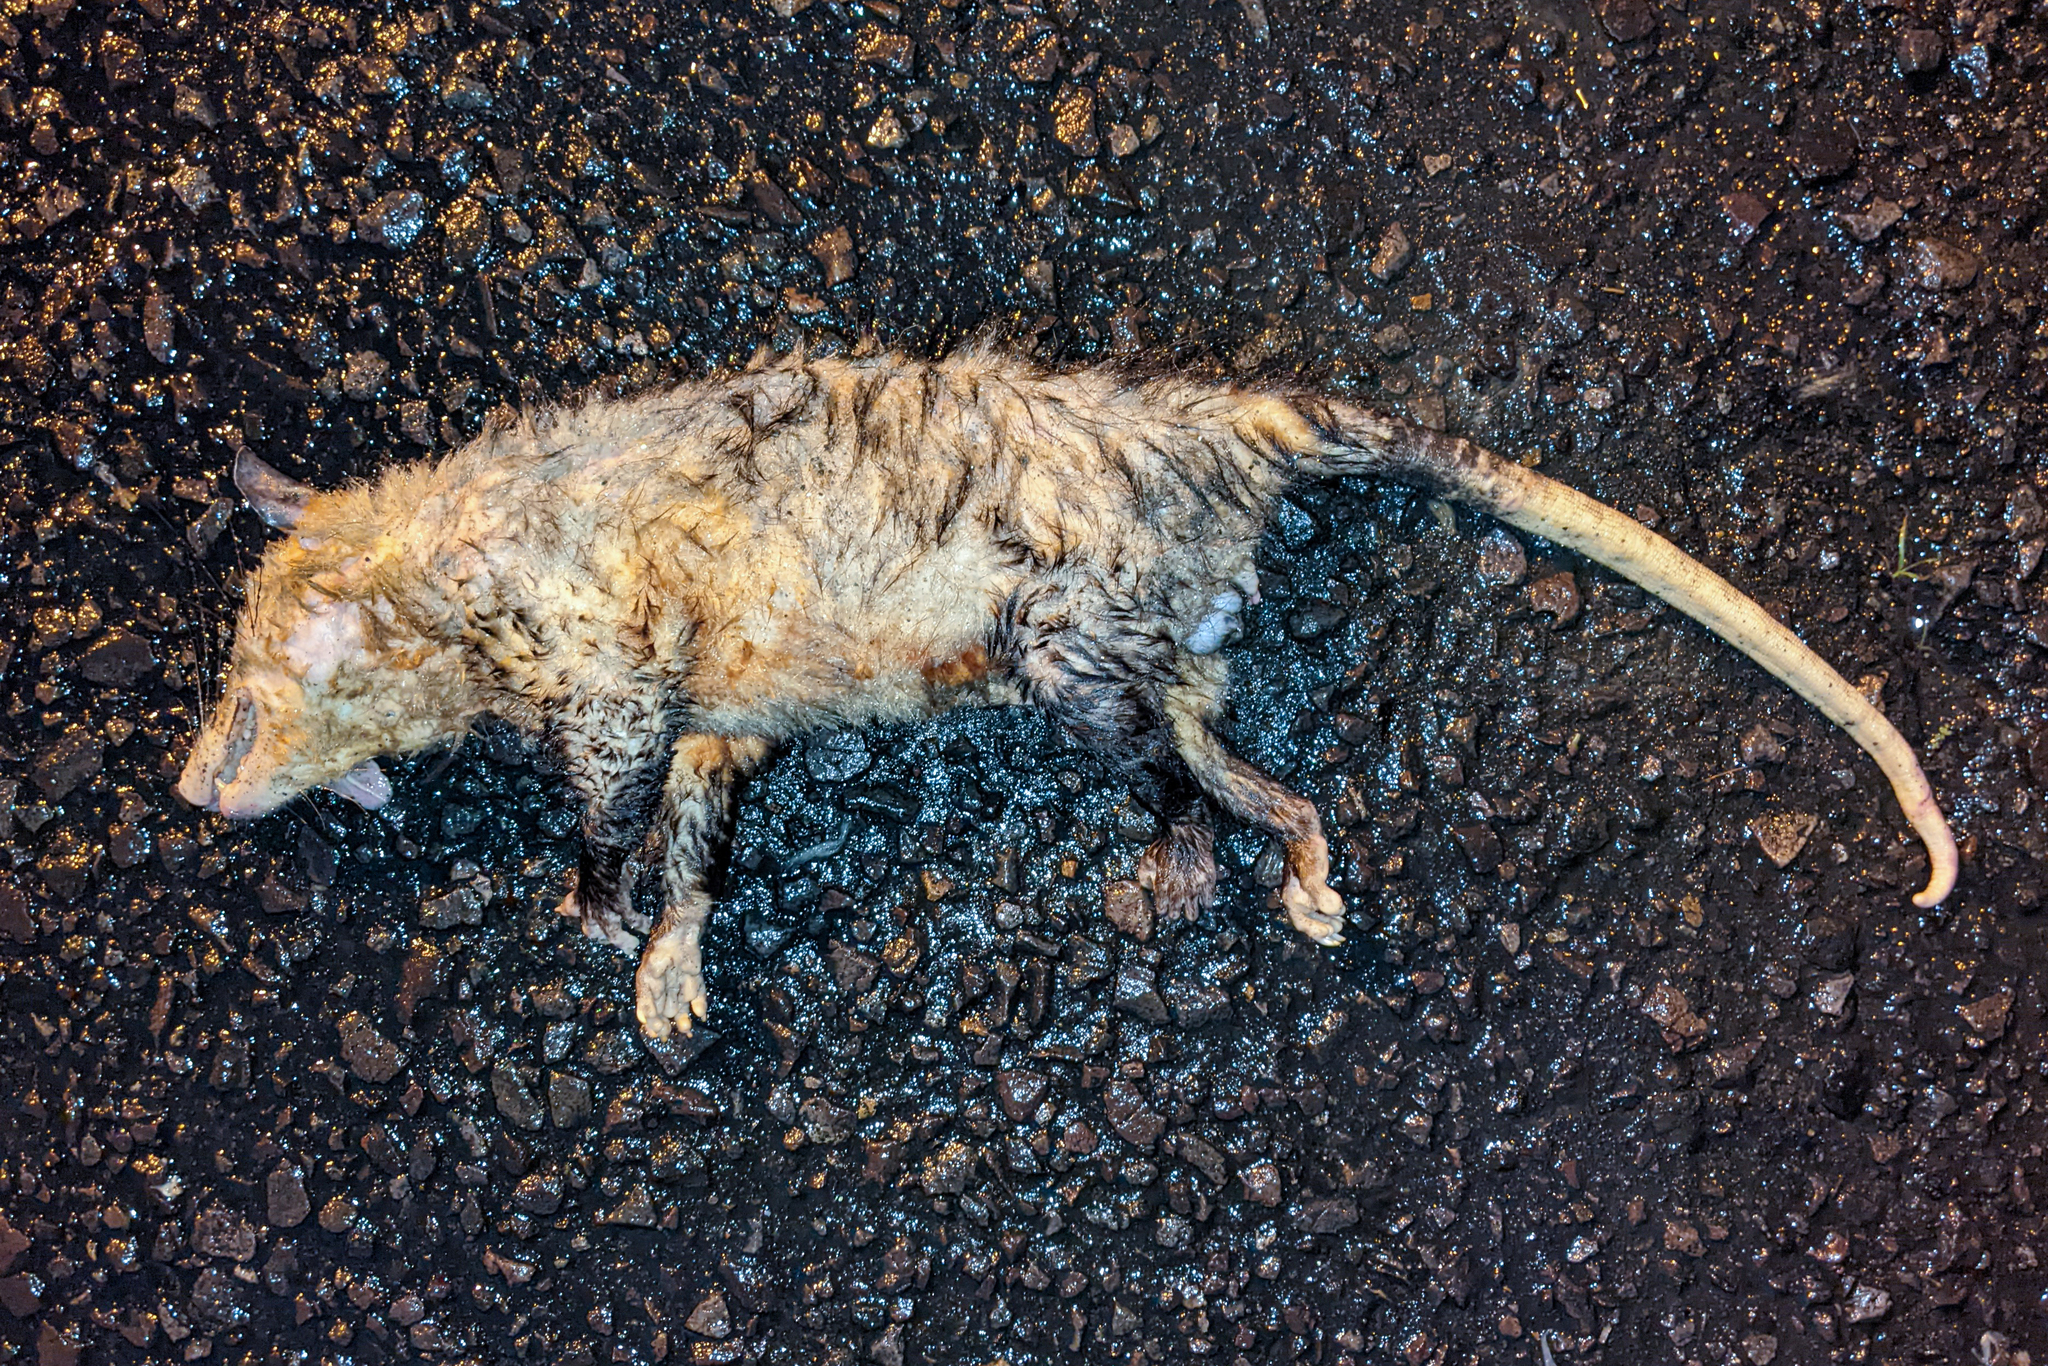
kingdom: Animalia
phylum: Chordata
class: Mammalia
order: Didelphimorphia
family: Didelphidae
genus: Didelphis
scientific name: Didelphis marsupialis
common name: Common opossum
